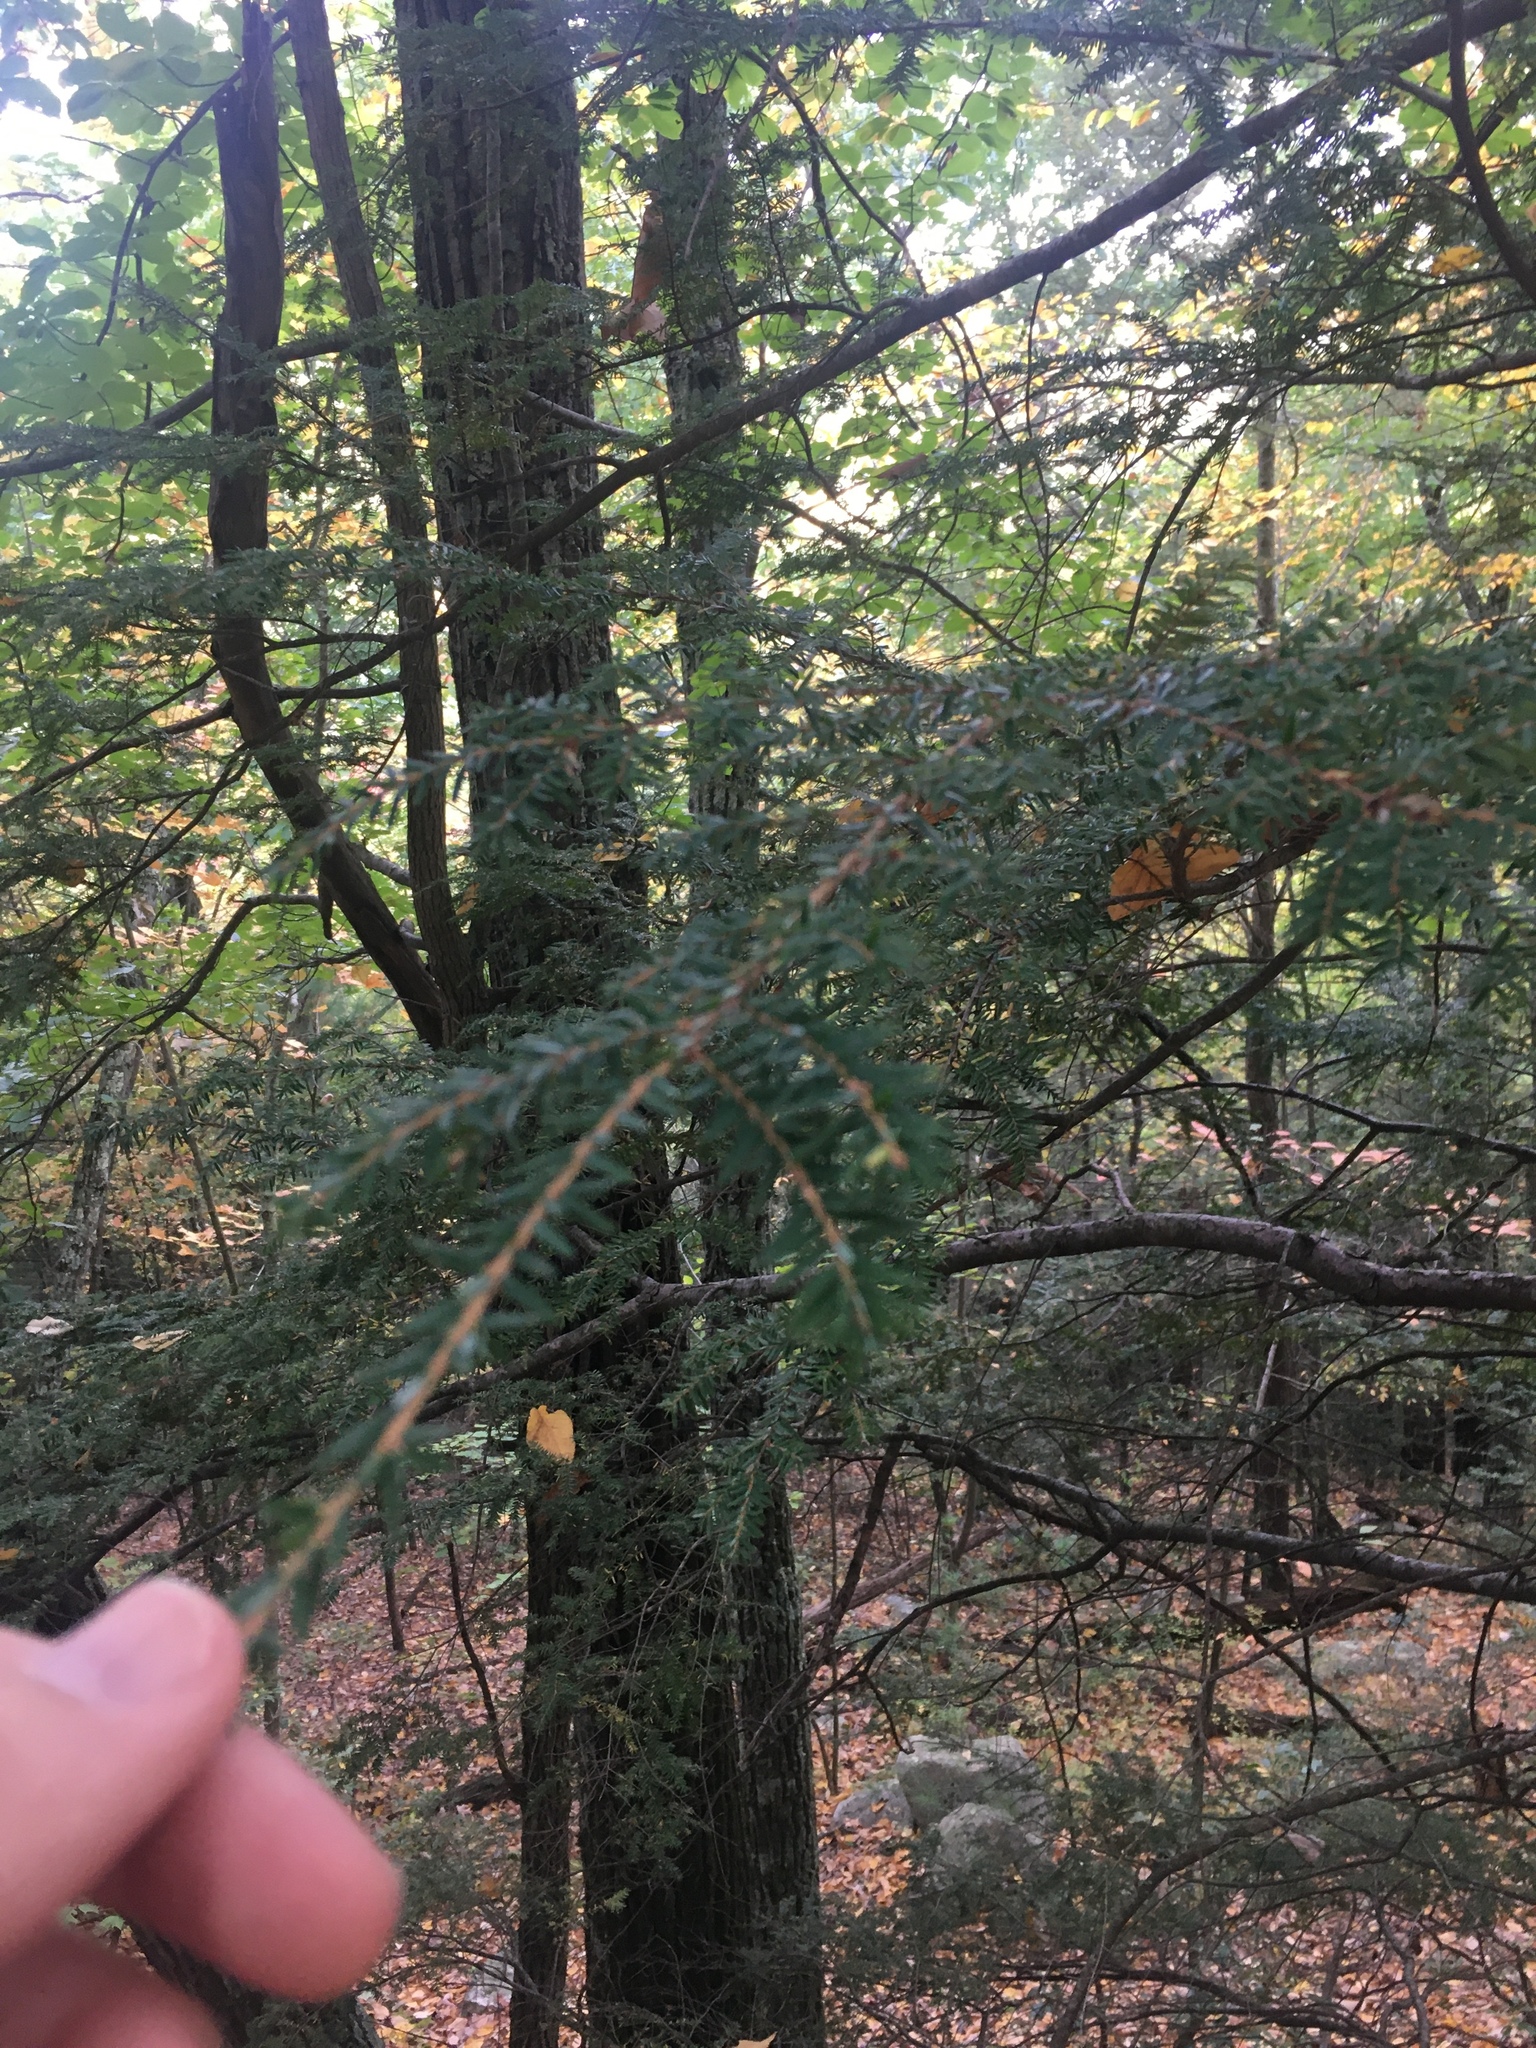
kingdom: Plantae
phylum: Tracheophyta
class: Pinopsida
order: Pinales
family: Pinaceae
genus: Tsuga
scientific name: Tsuga canadensis
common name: Eastern hemlock
